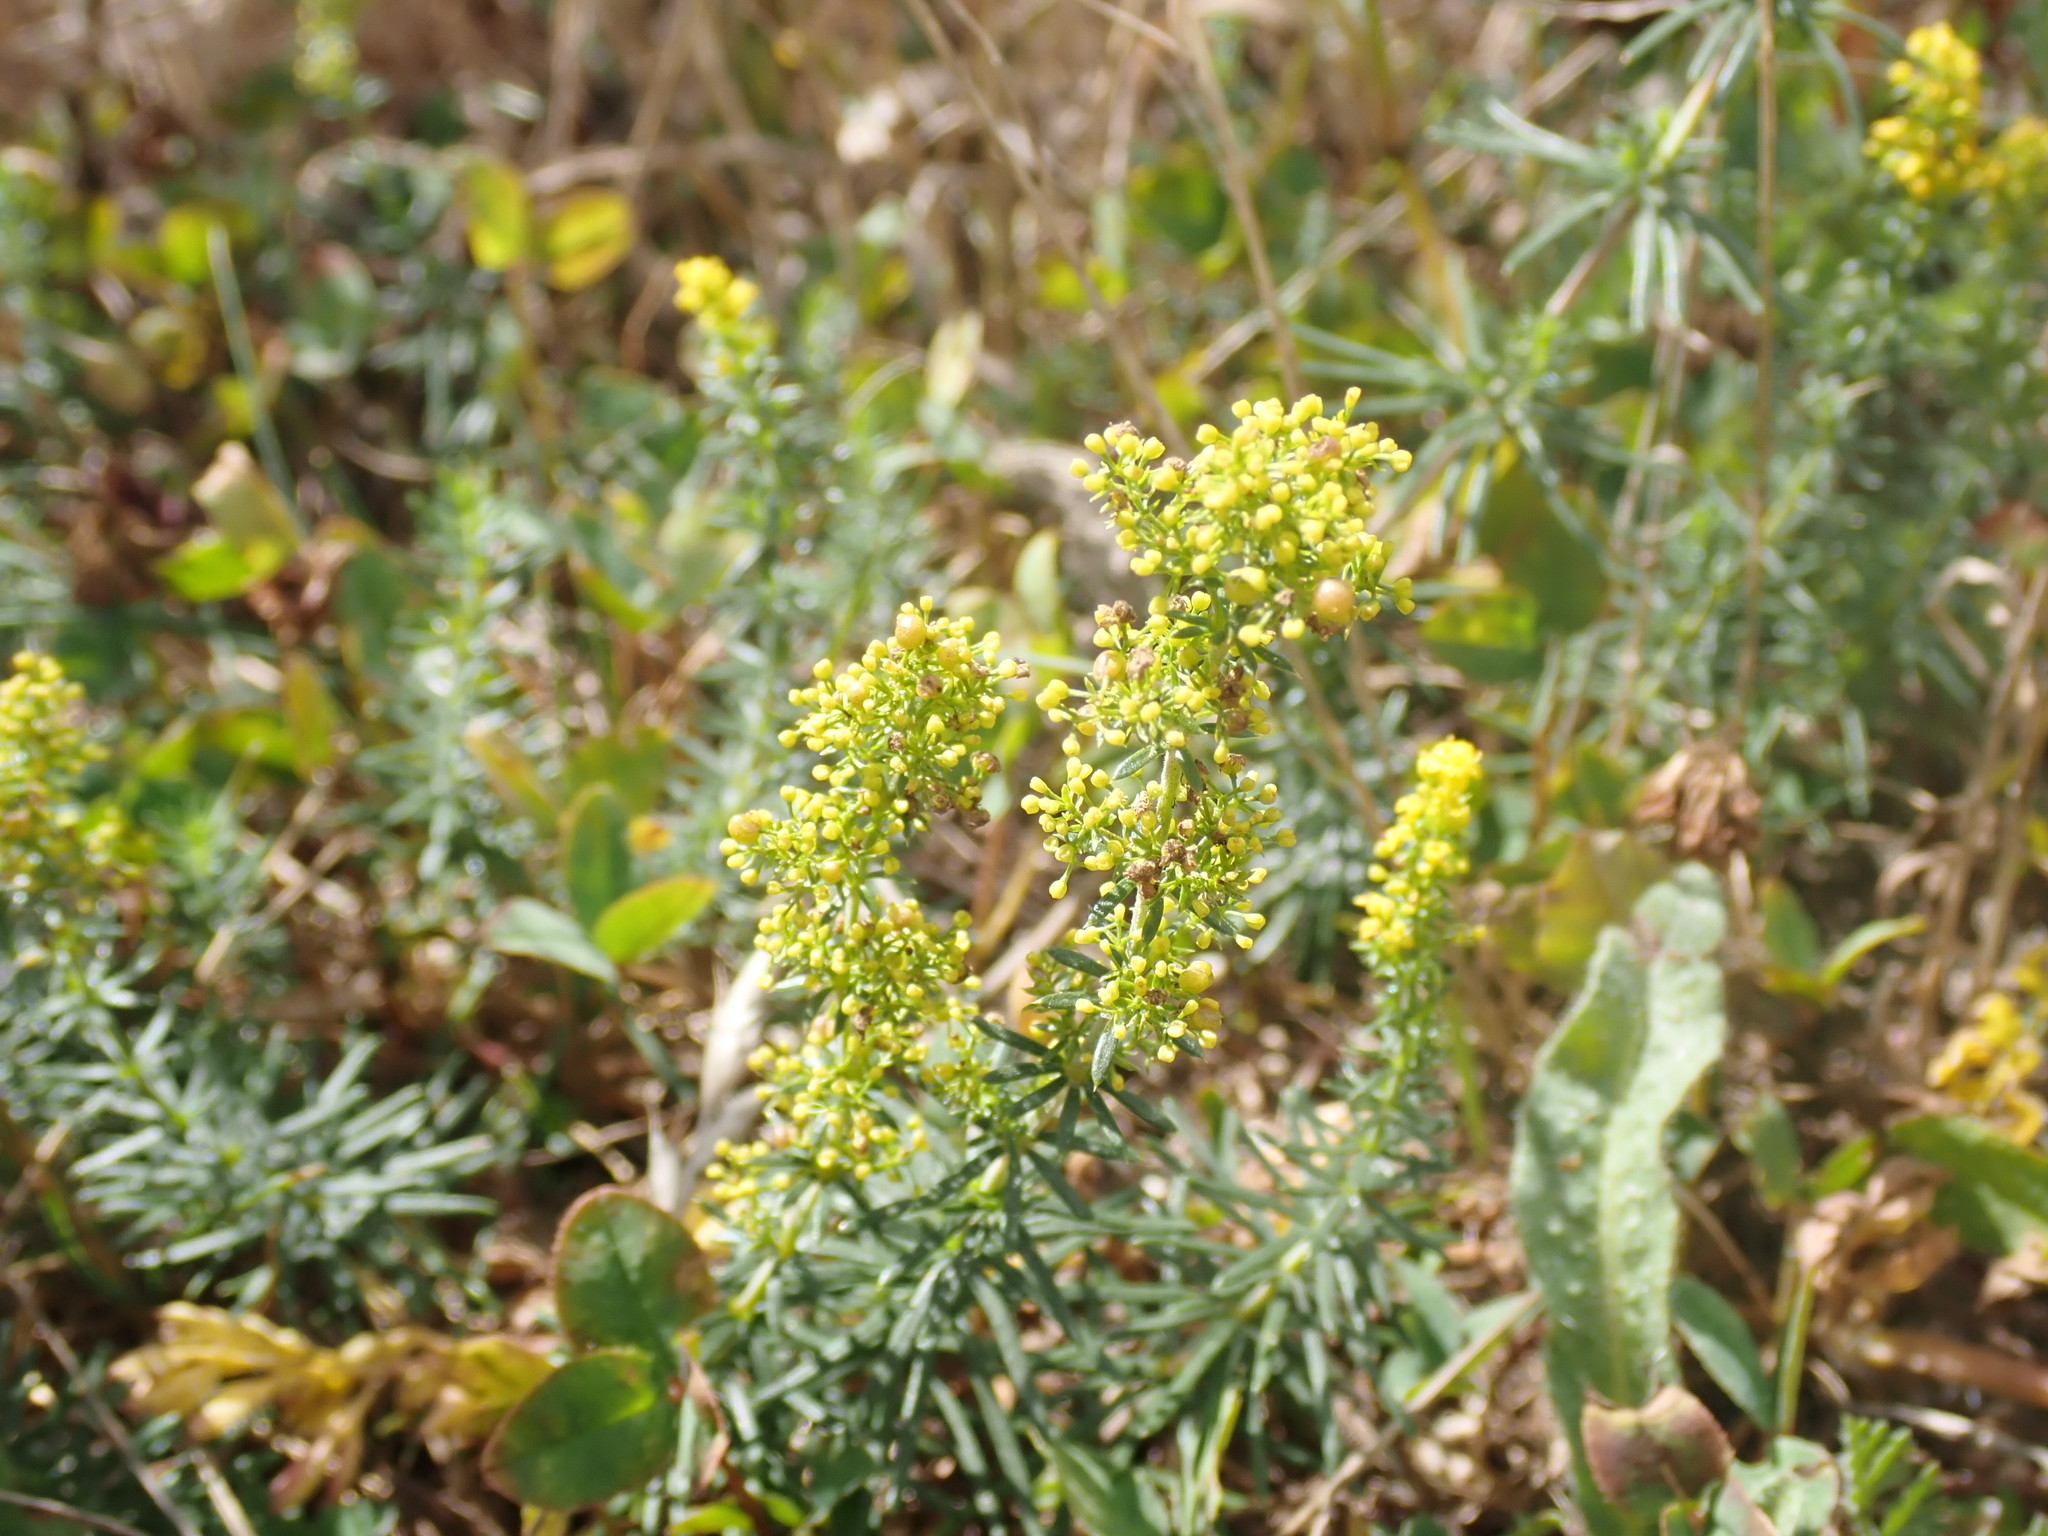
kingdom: Plantae
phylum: Tracheophyta
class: Magnoliopsida
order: Gentianales
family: Rubiaceae
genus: Galium
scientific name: Galium verum
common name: Lady's bedstraw
